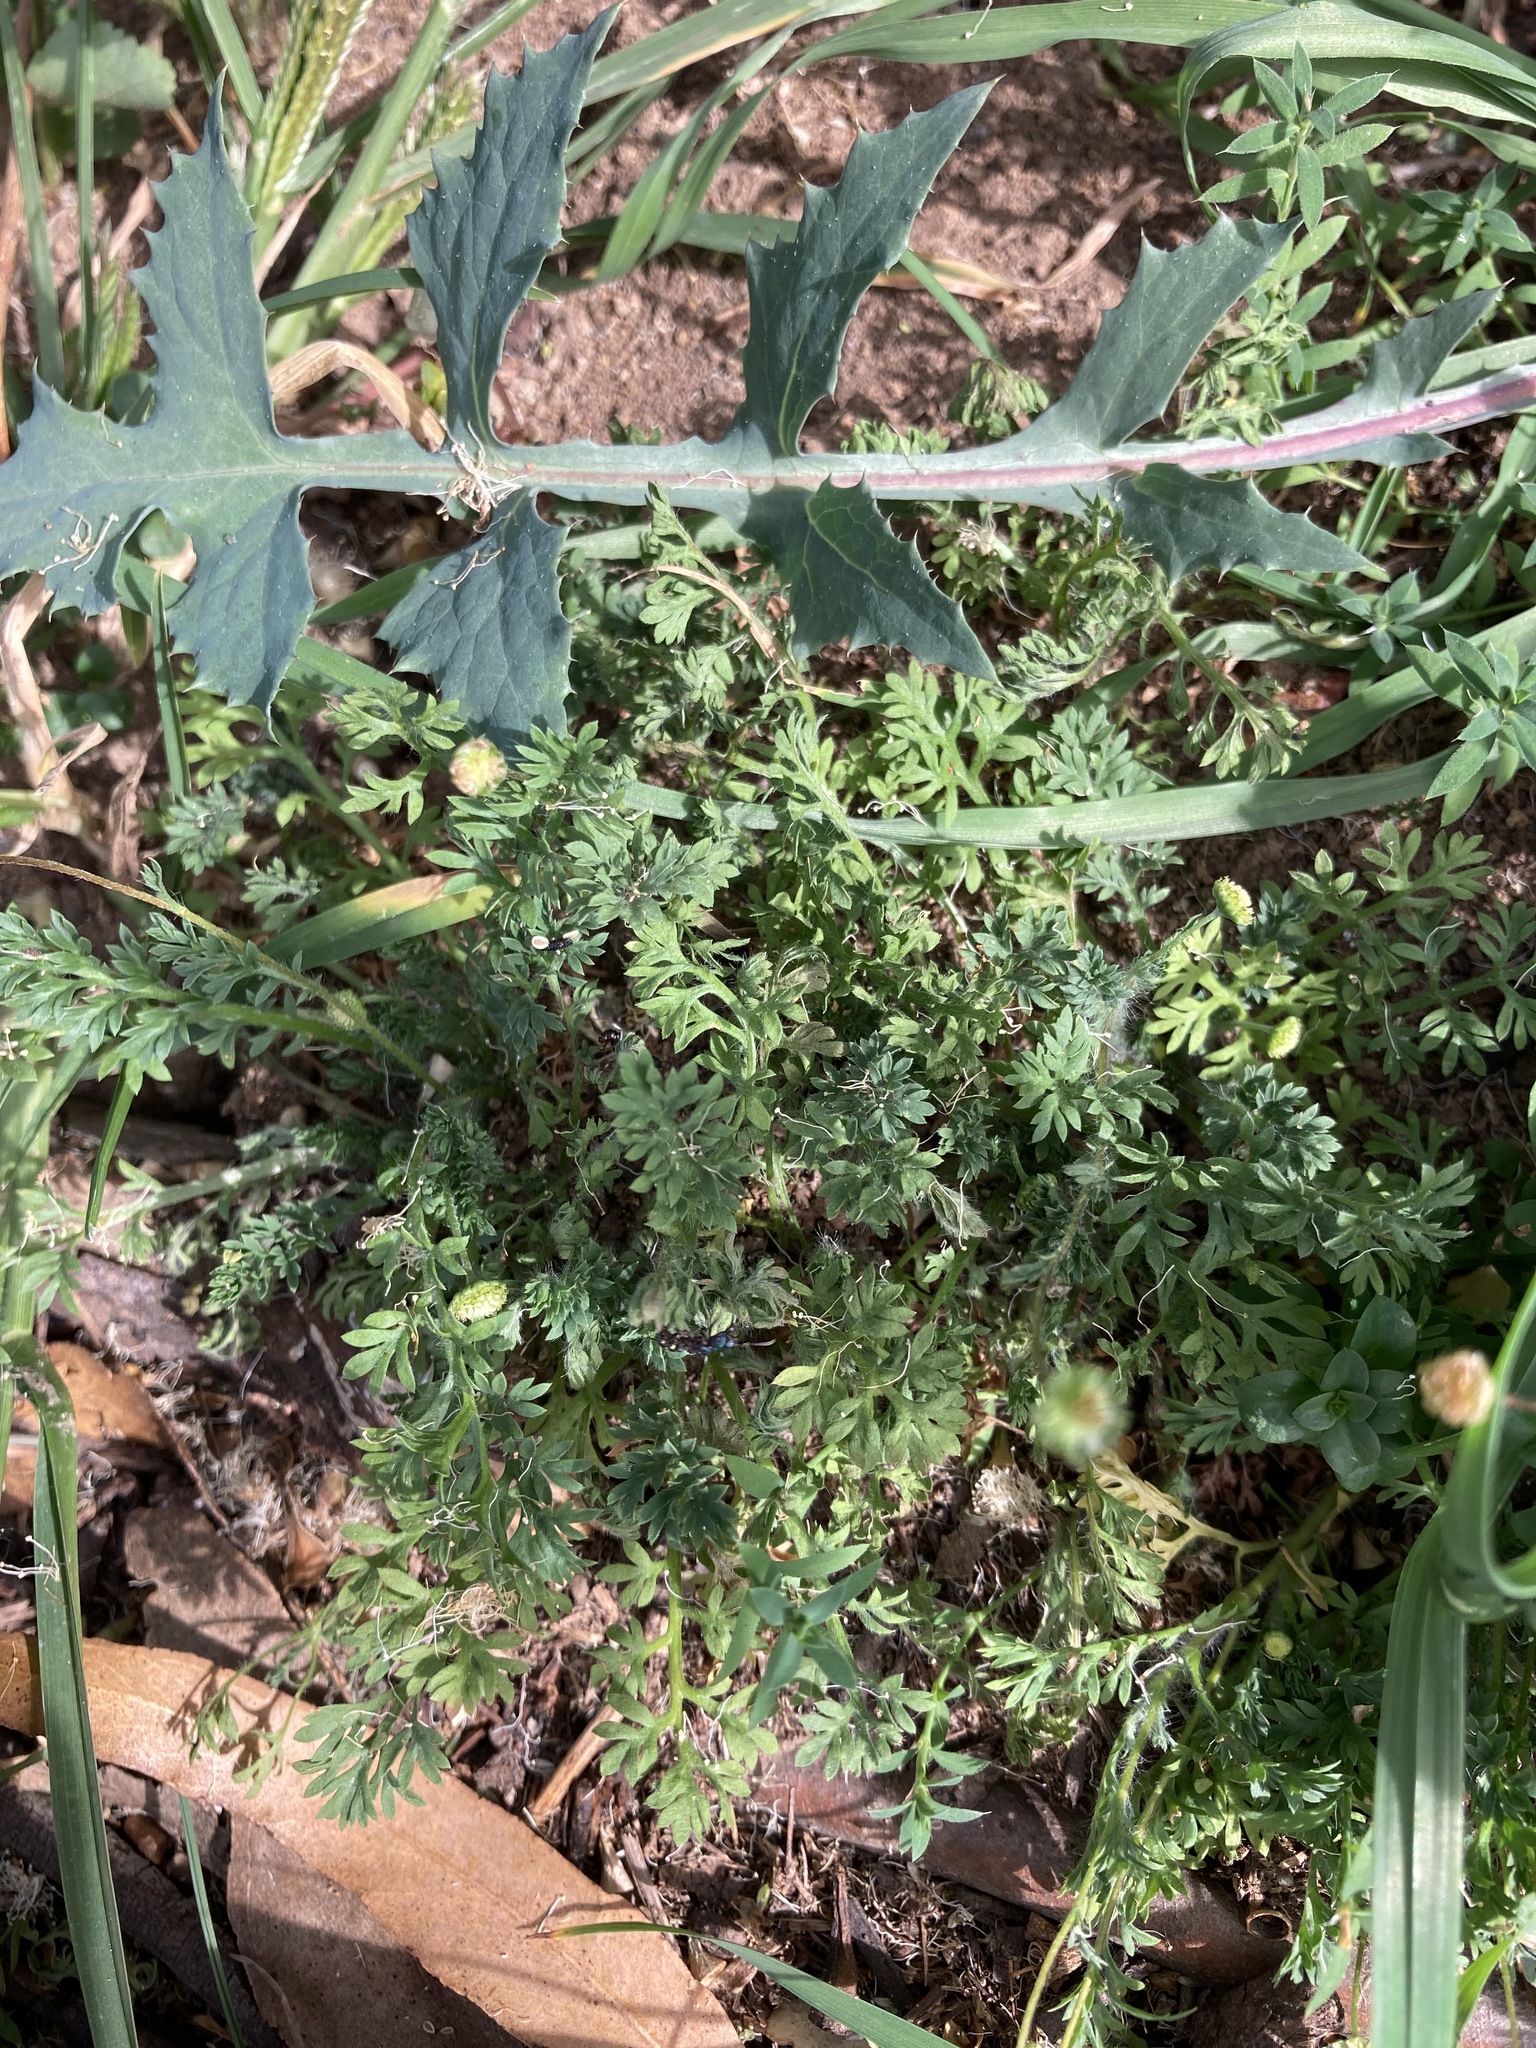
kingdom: Plantae
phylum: Tracheophyta
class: Magnoliopsida
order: Asterales
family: Asteraceae
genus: Cotula
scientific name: Cotula australis
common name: Australian waterbuttons
